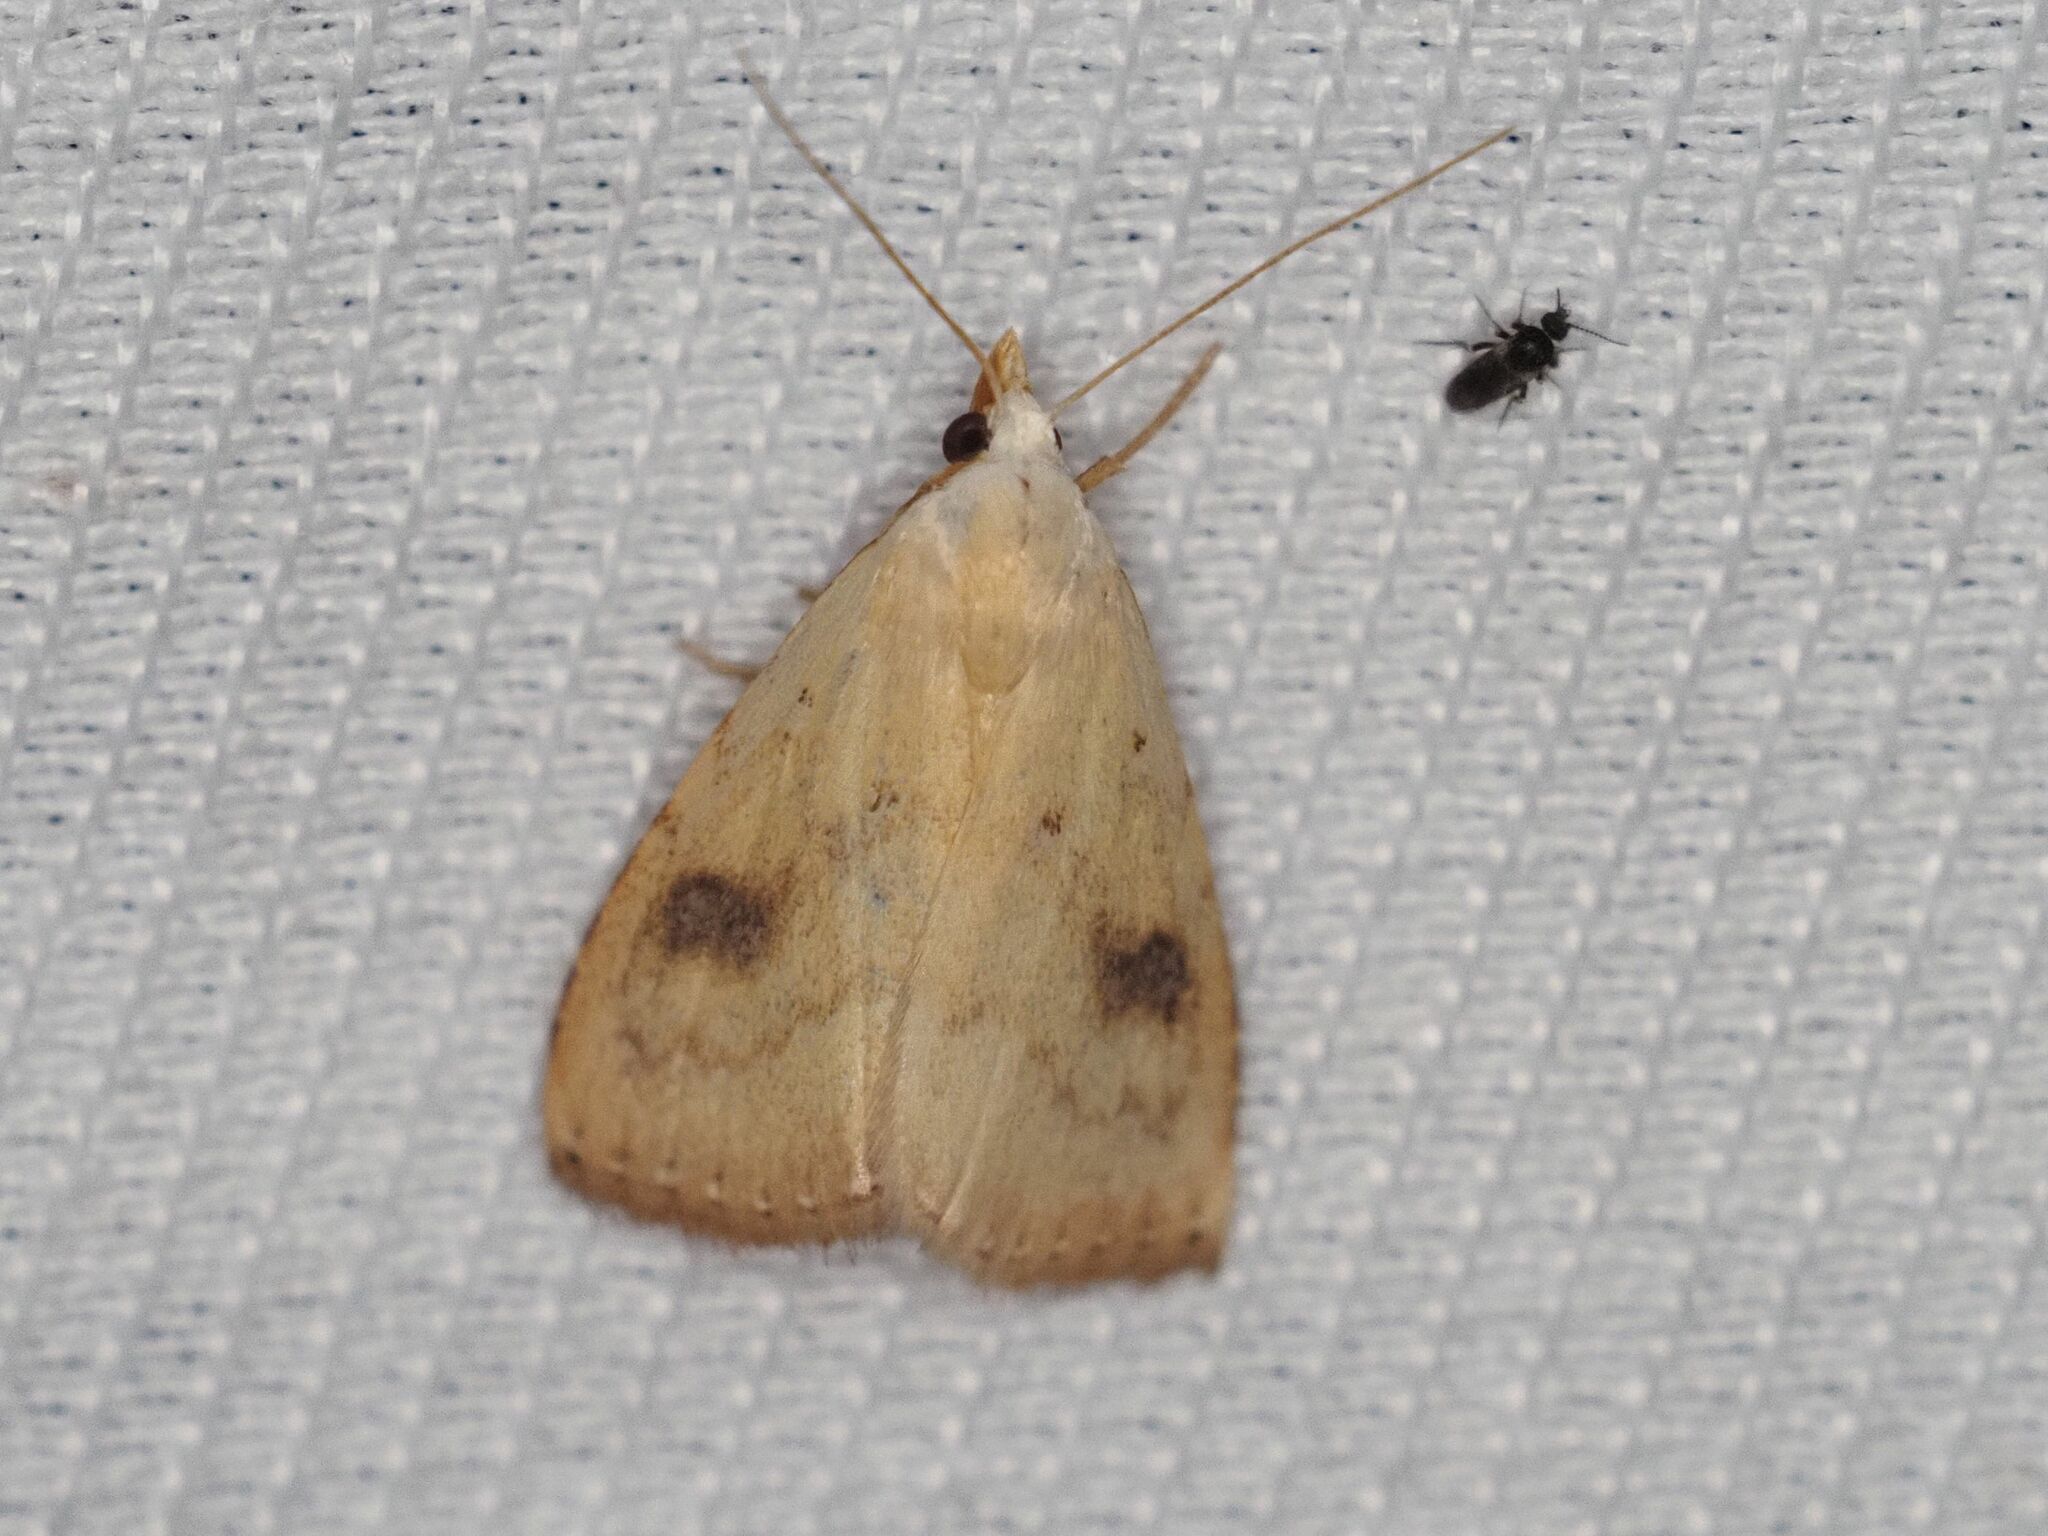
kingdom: Animalia
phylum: Arthropoda
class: Insecta
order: Lepidoptera
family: Erebidae
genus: Rivula
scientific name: Rivula sericealis
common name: Straw dot
